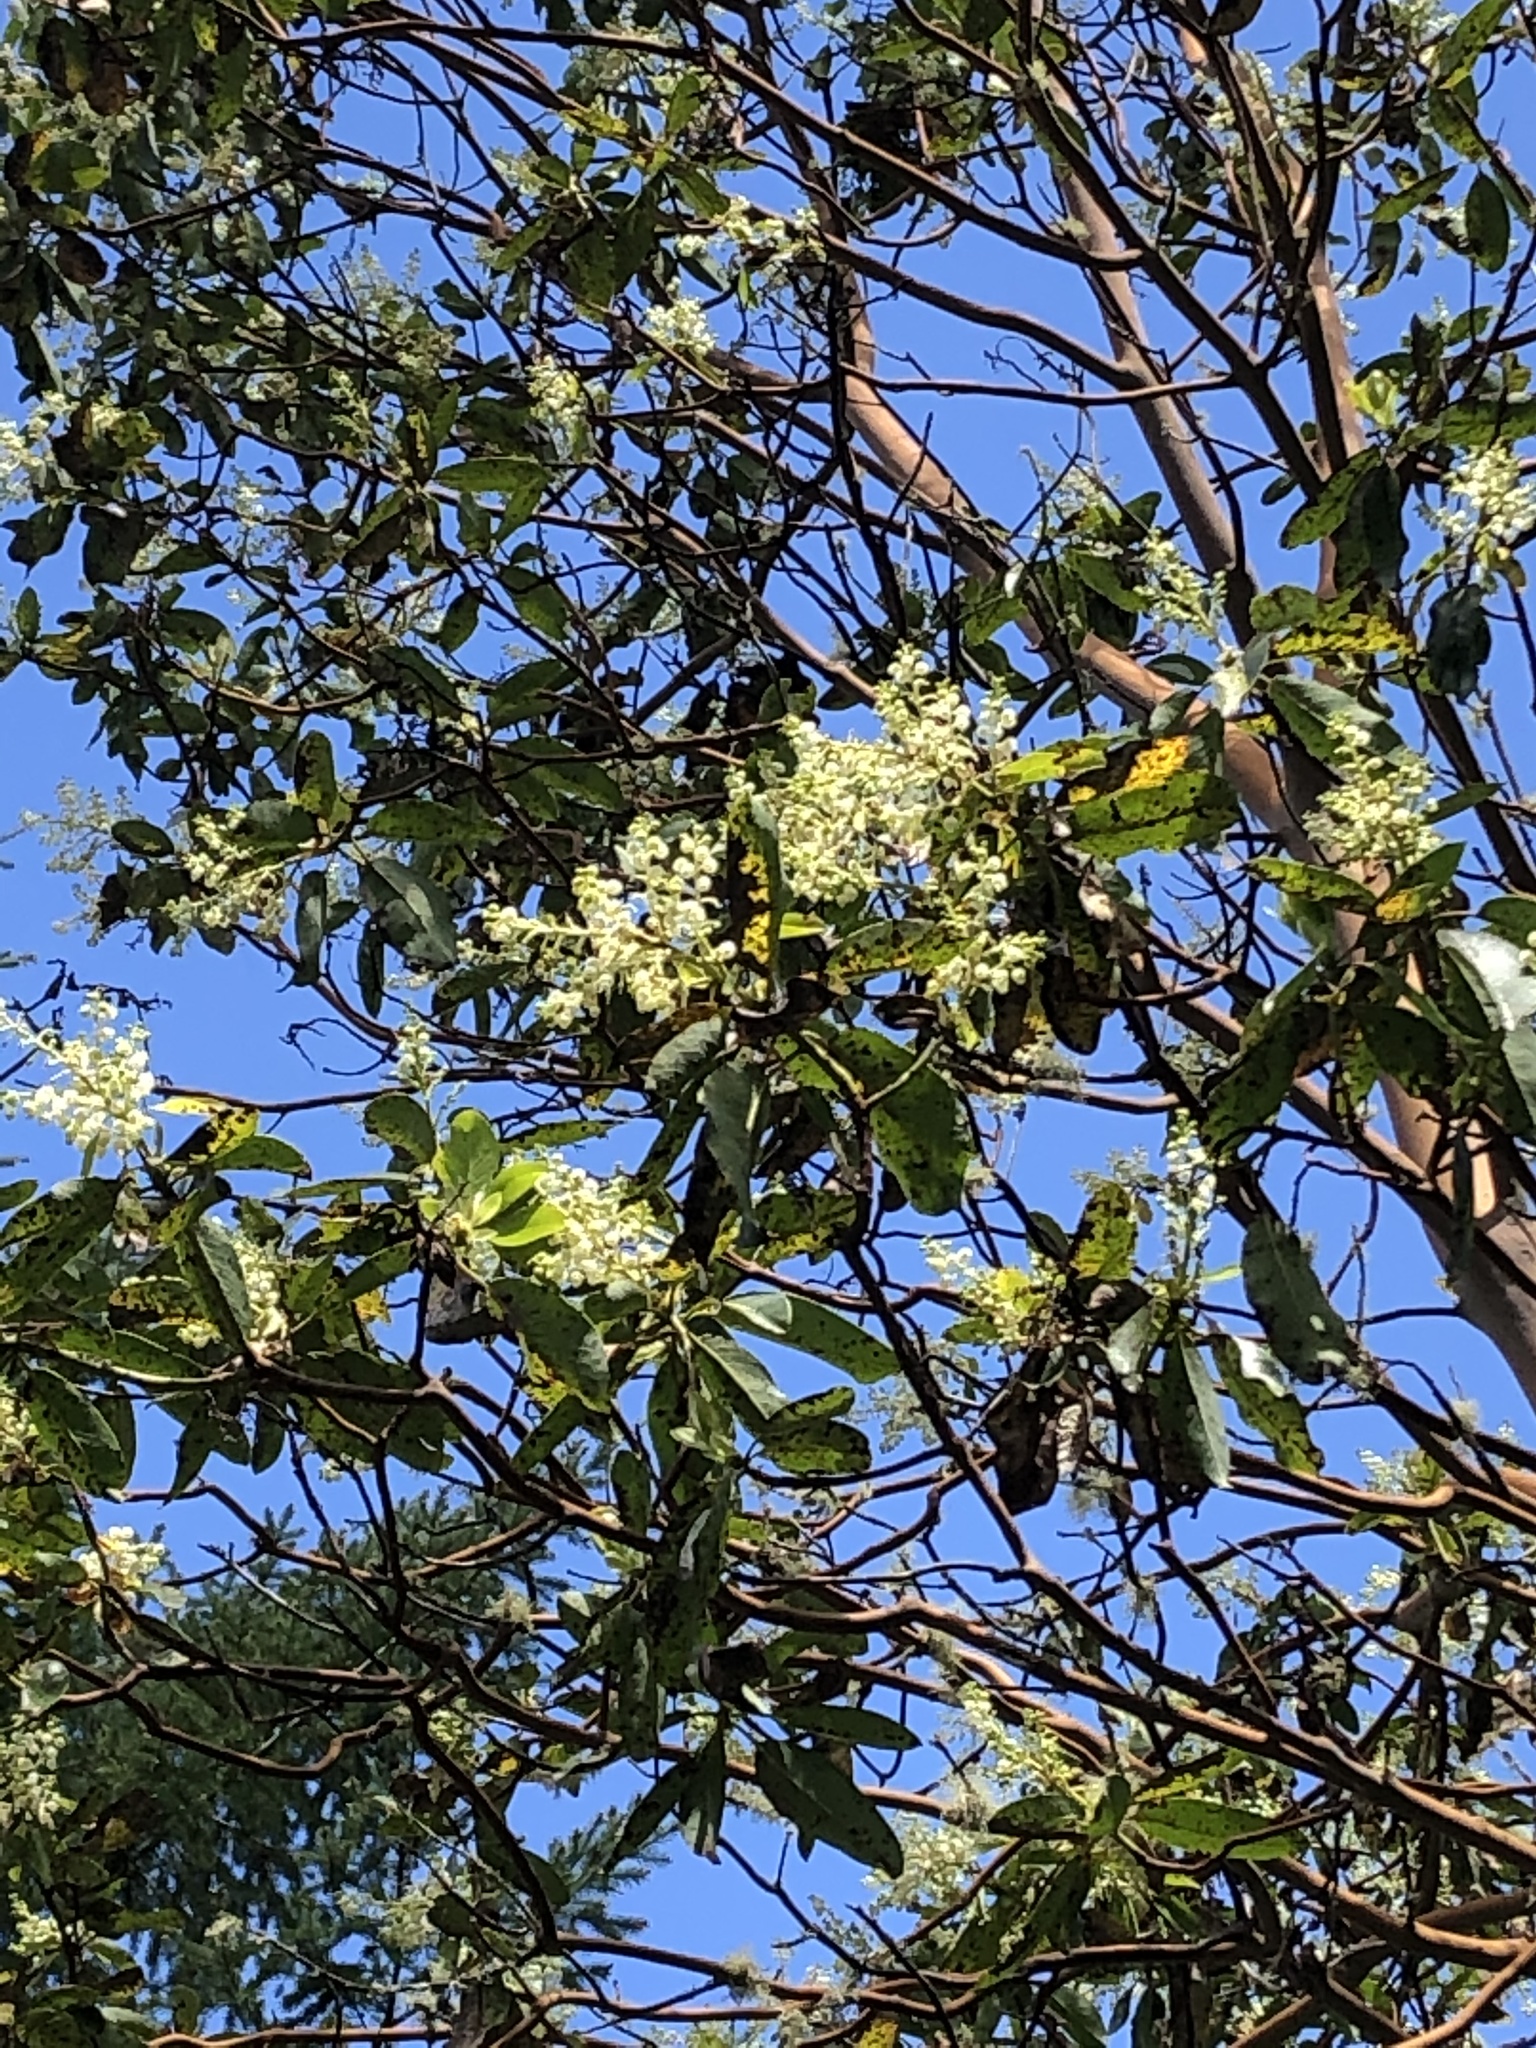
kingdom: Plantae
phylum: Tracheophyta
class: Magnoliopsida
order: Ericales
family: Ericaceae
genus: Arbutus
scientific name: Arbutus menziesii
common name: Pacific madrone
